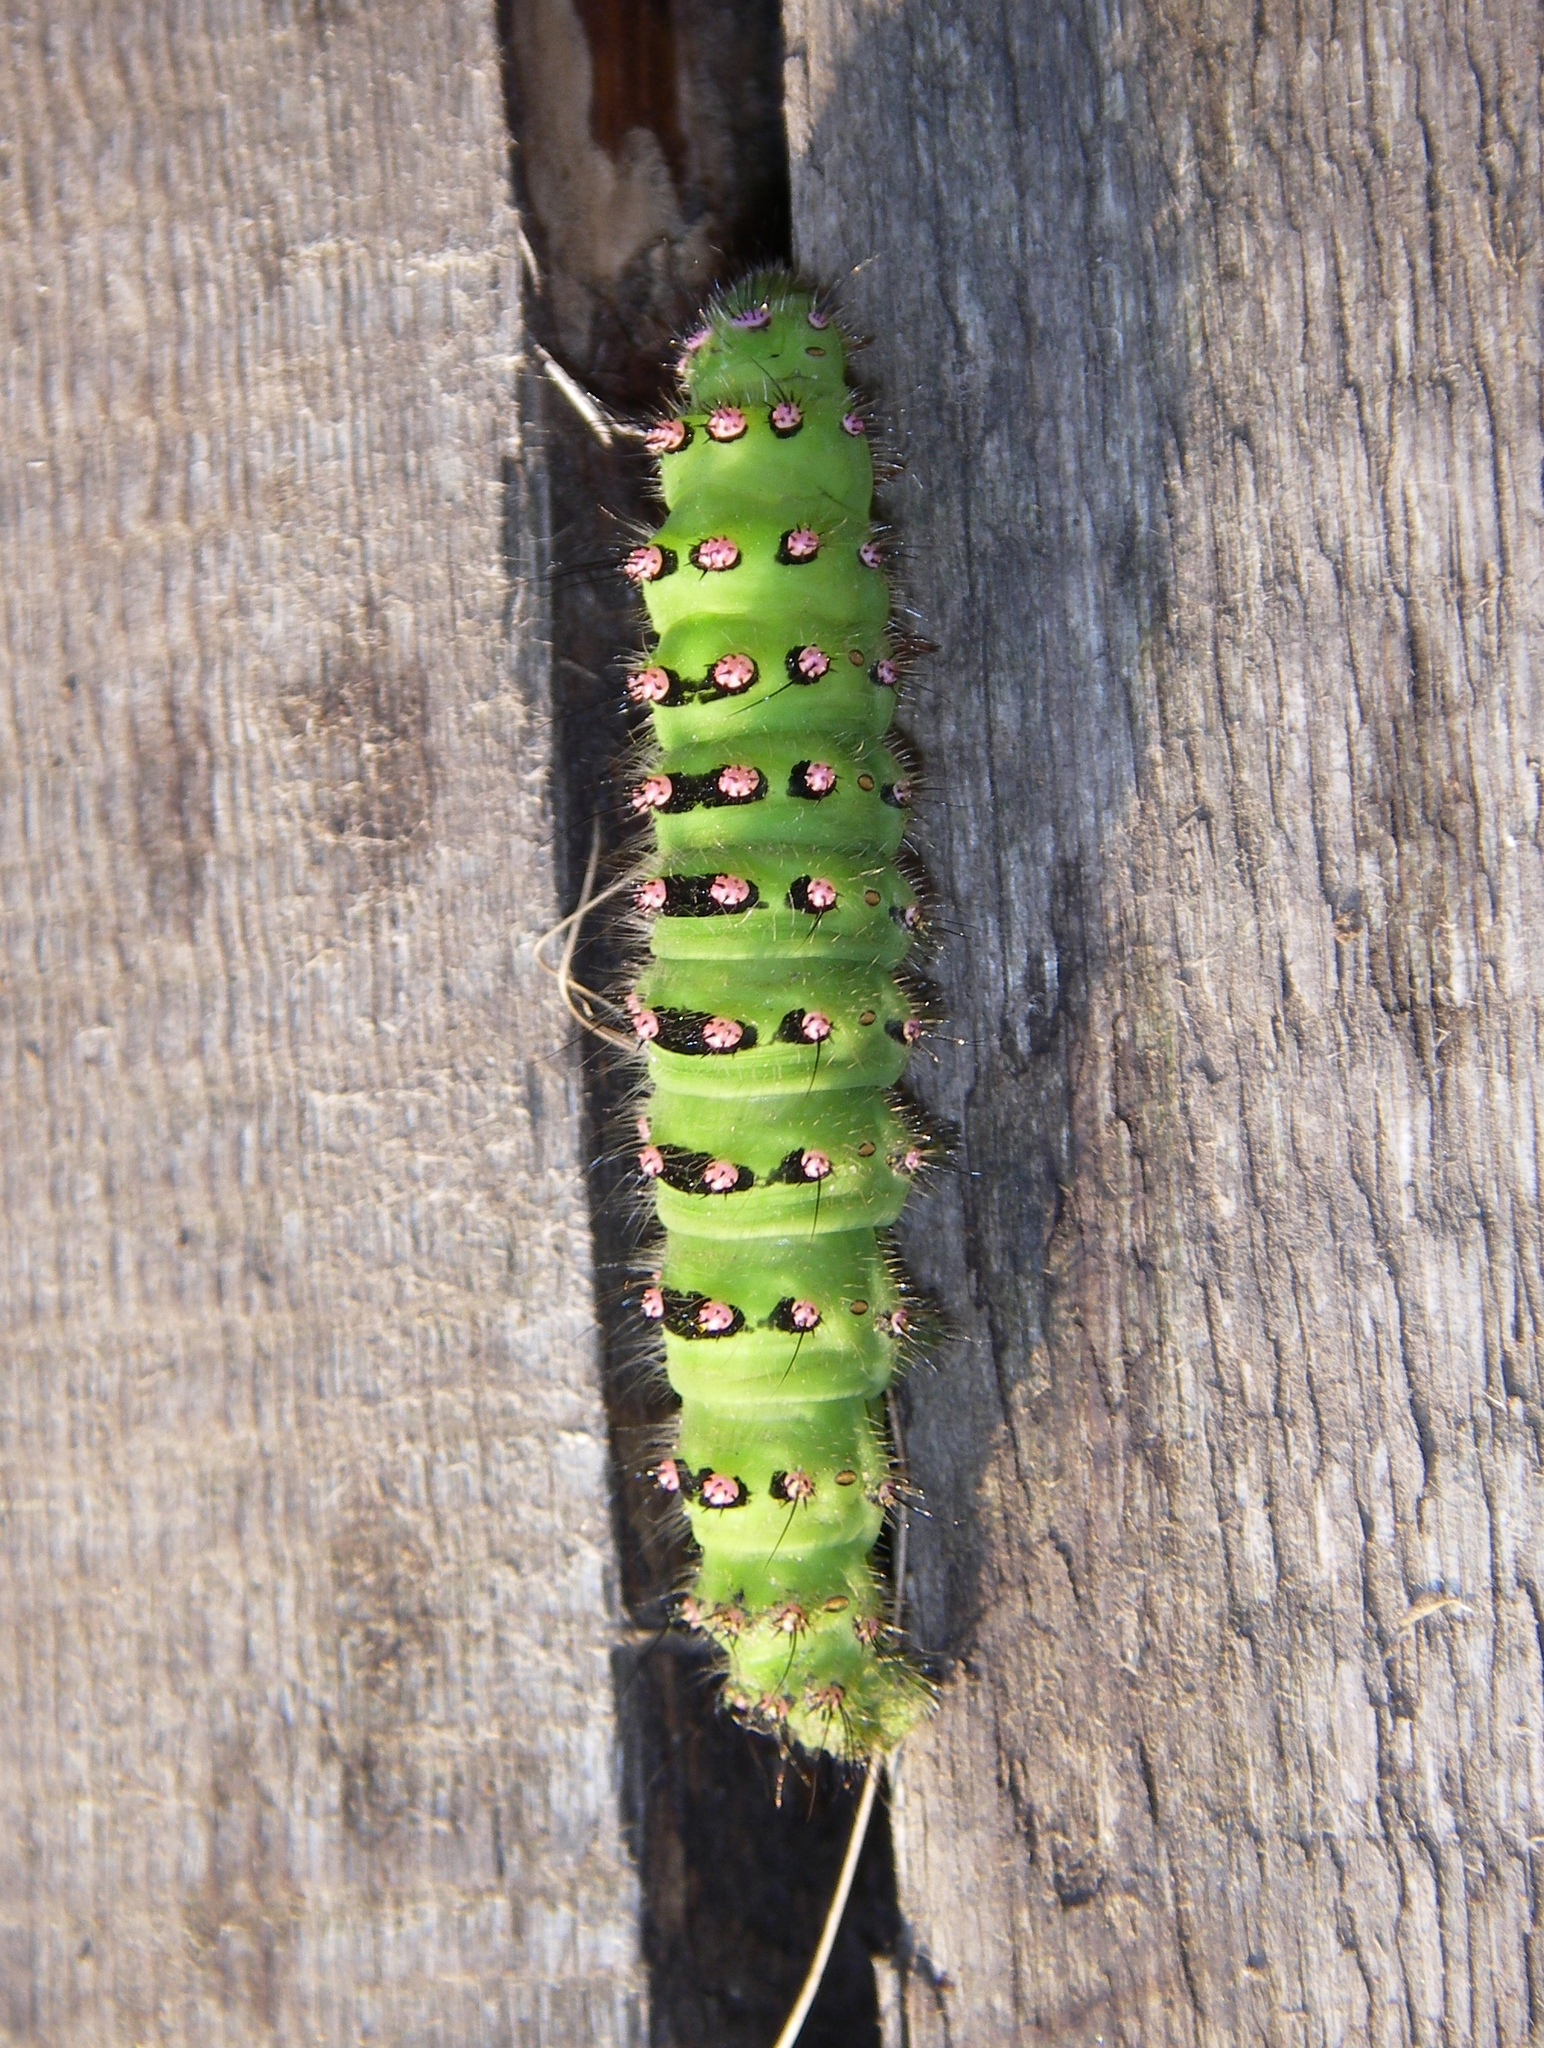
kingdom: Animalia
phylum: Arthropoda
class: Insecta
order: Lepidoptera
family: Saturniidae
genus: Saturnia
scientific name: Saturnia pavonia
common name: Emperor moth
